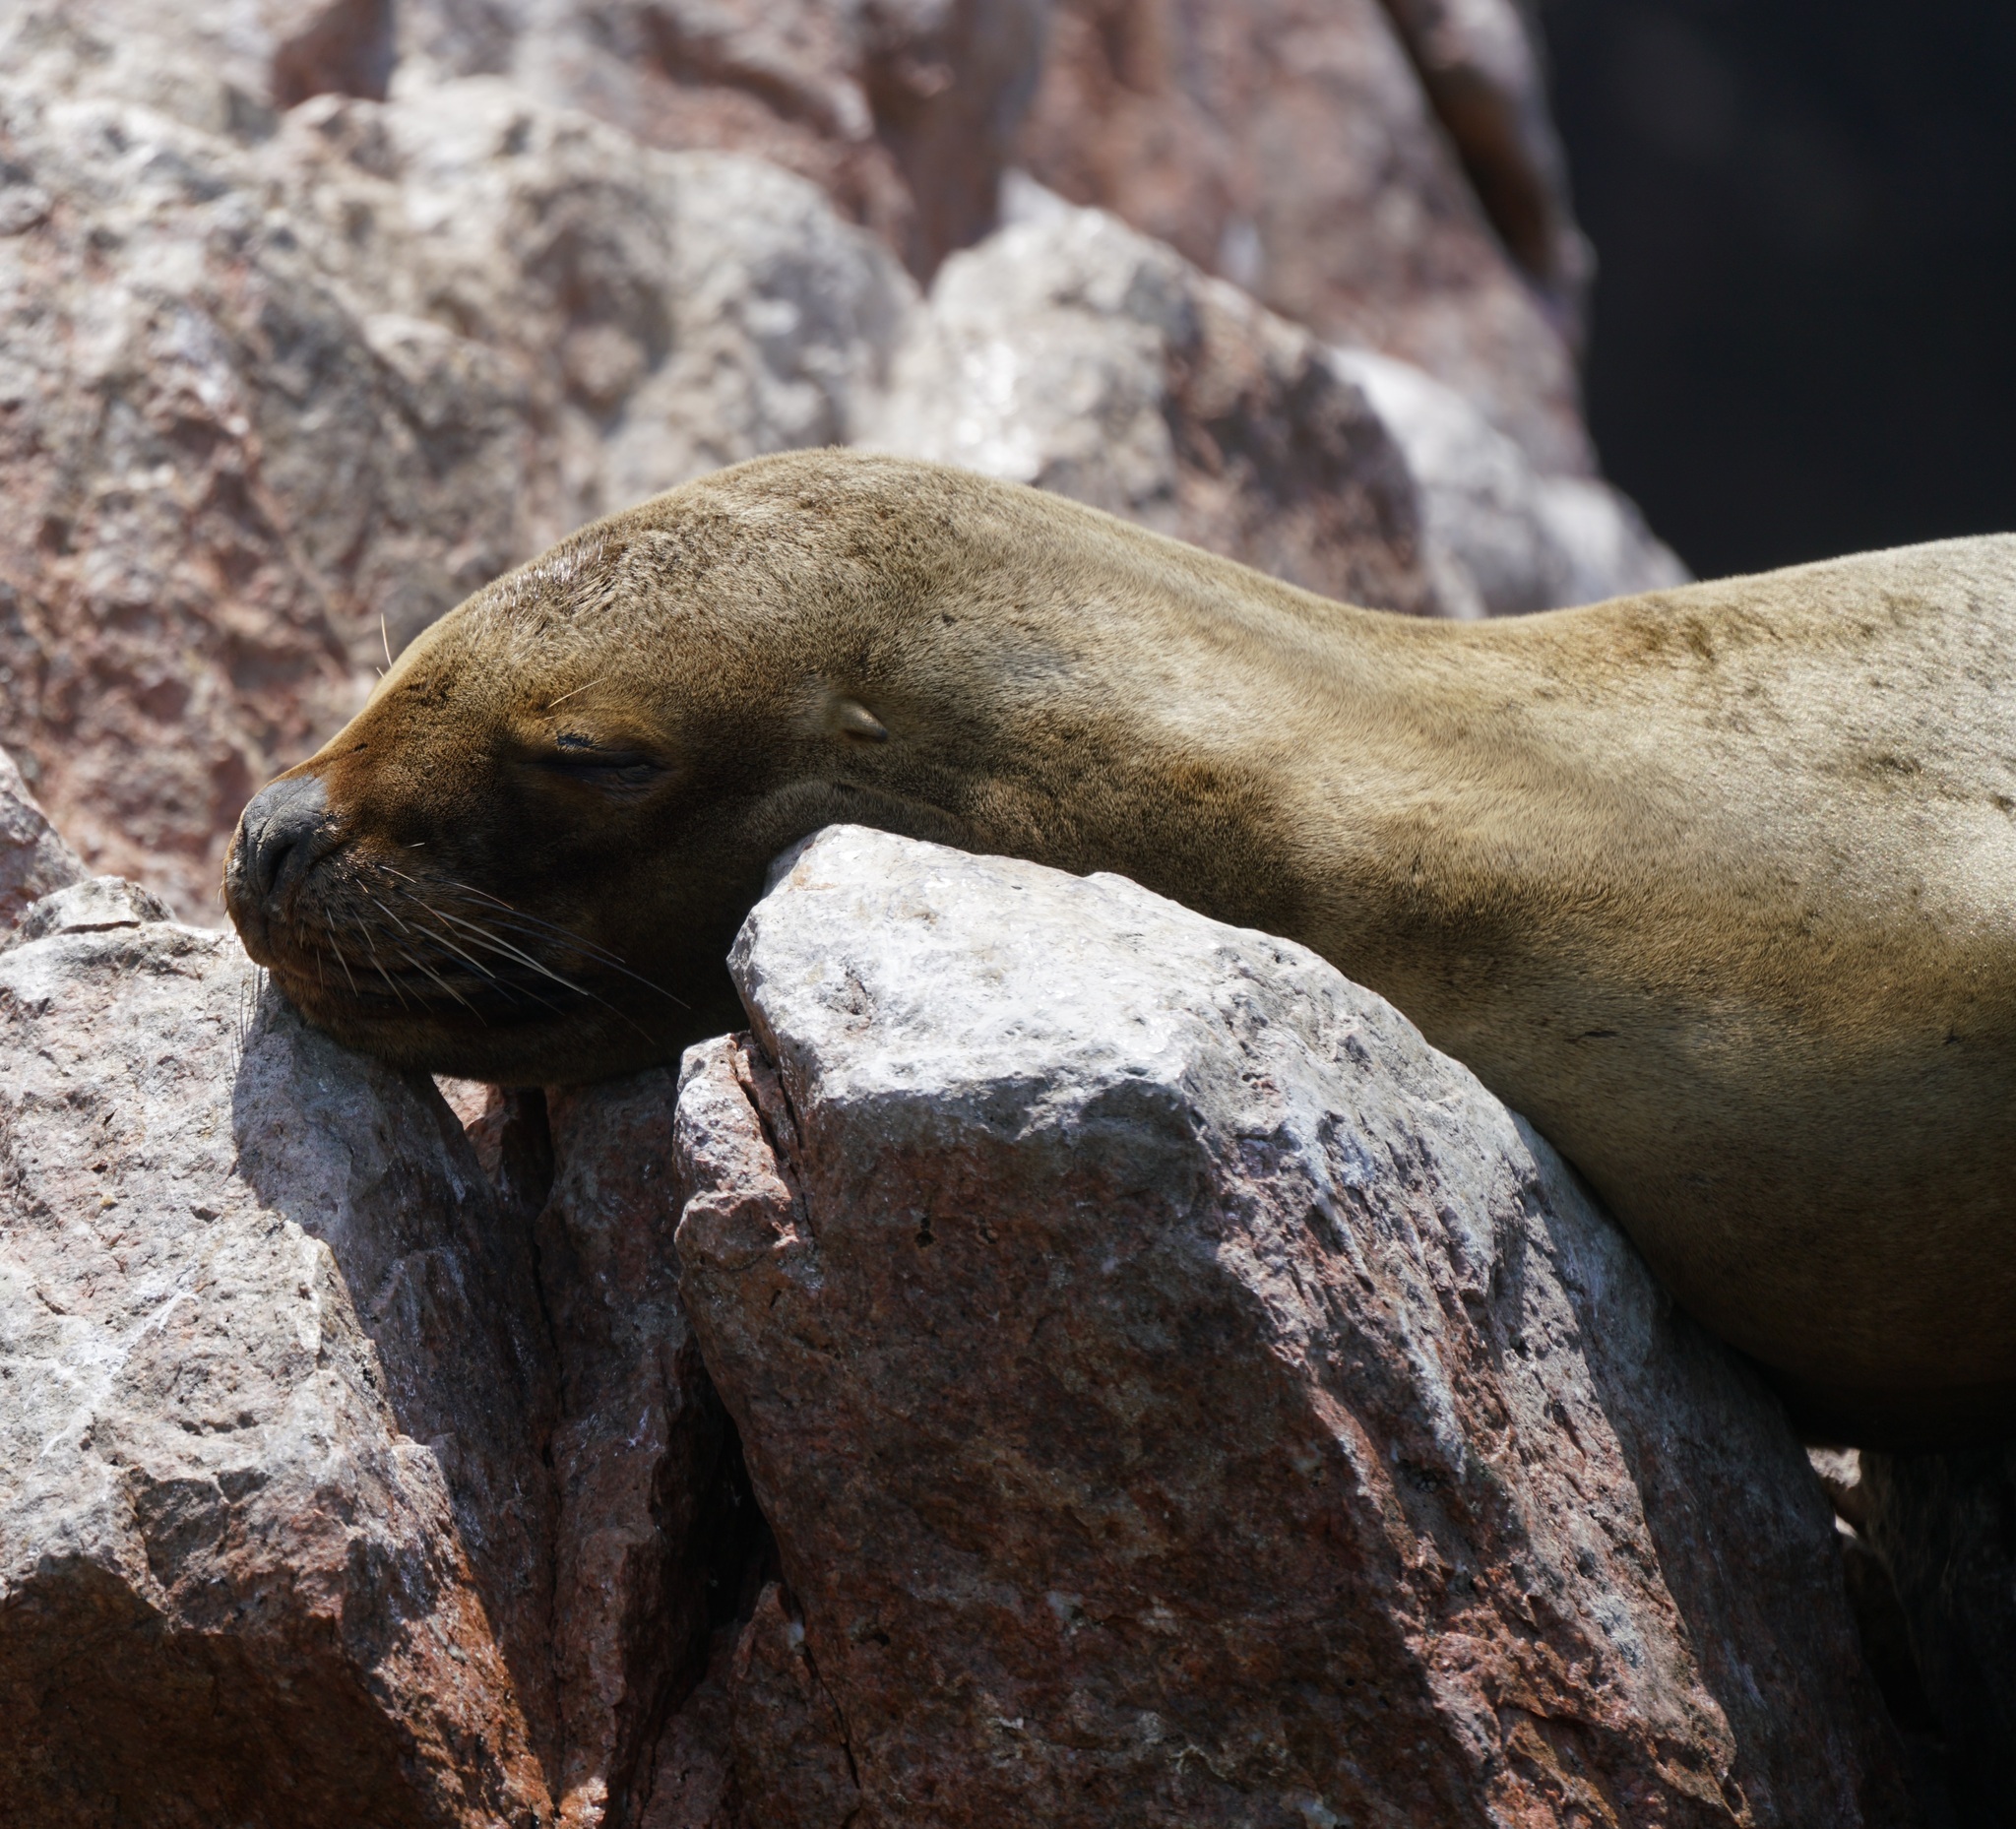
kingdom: Animalia
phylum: Chordata
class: Mammalia
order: Carnivora
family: Otariidae
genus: Otaria
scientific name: Otaria byronia
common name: South american sea lion
